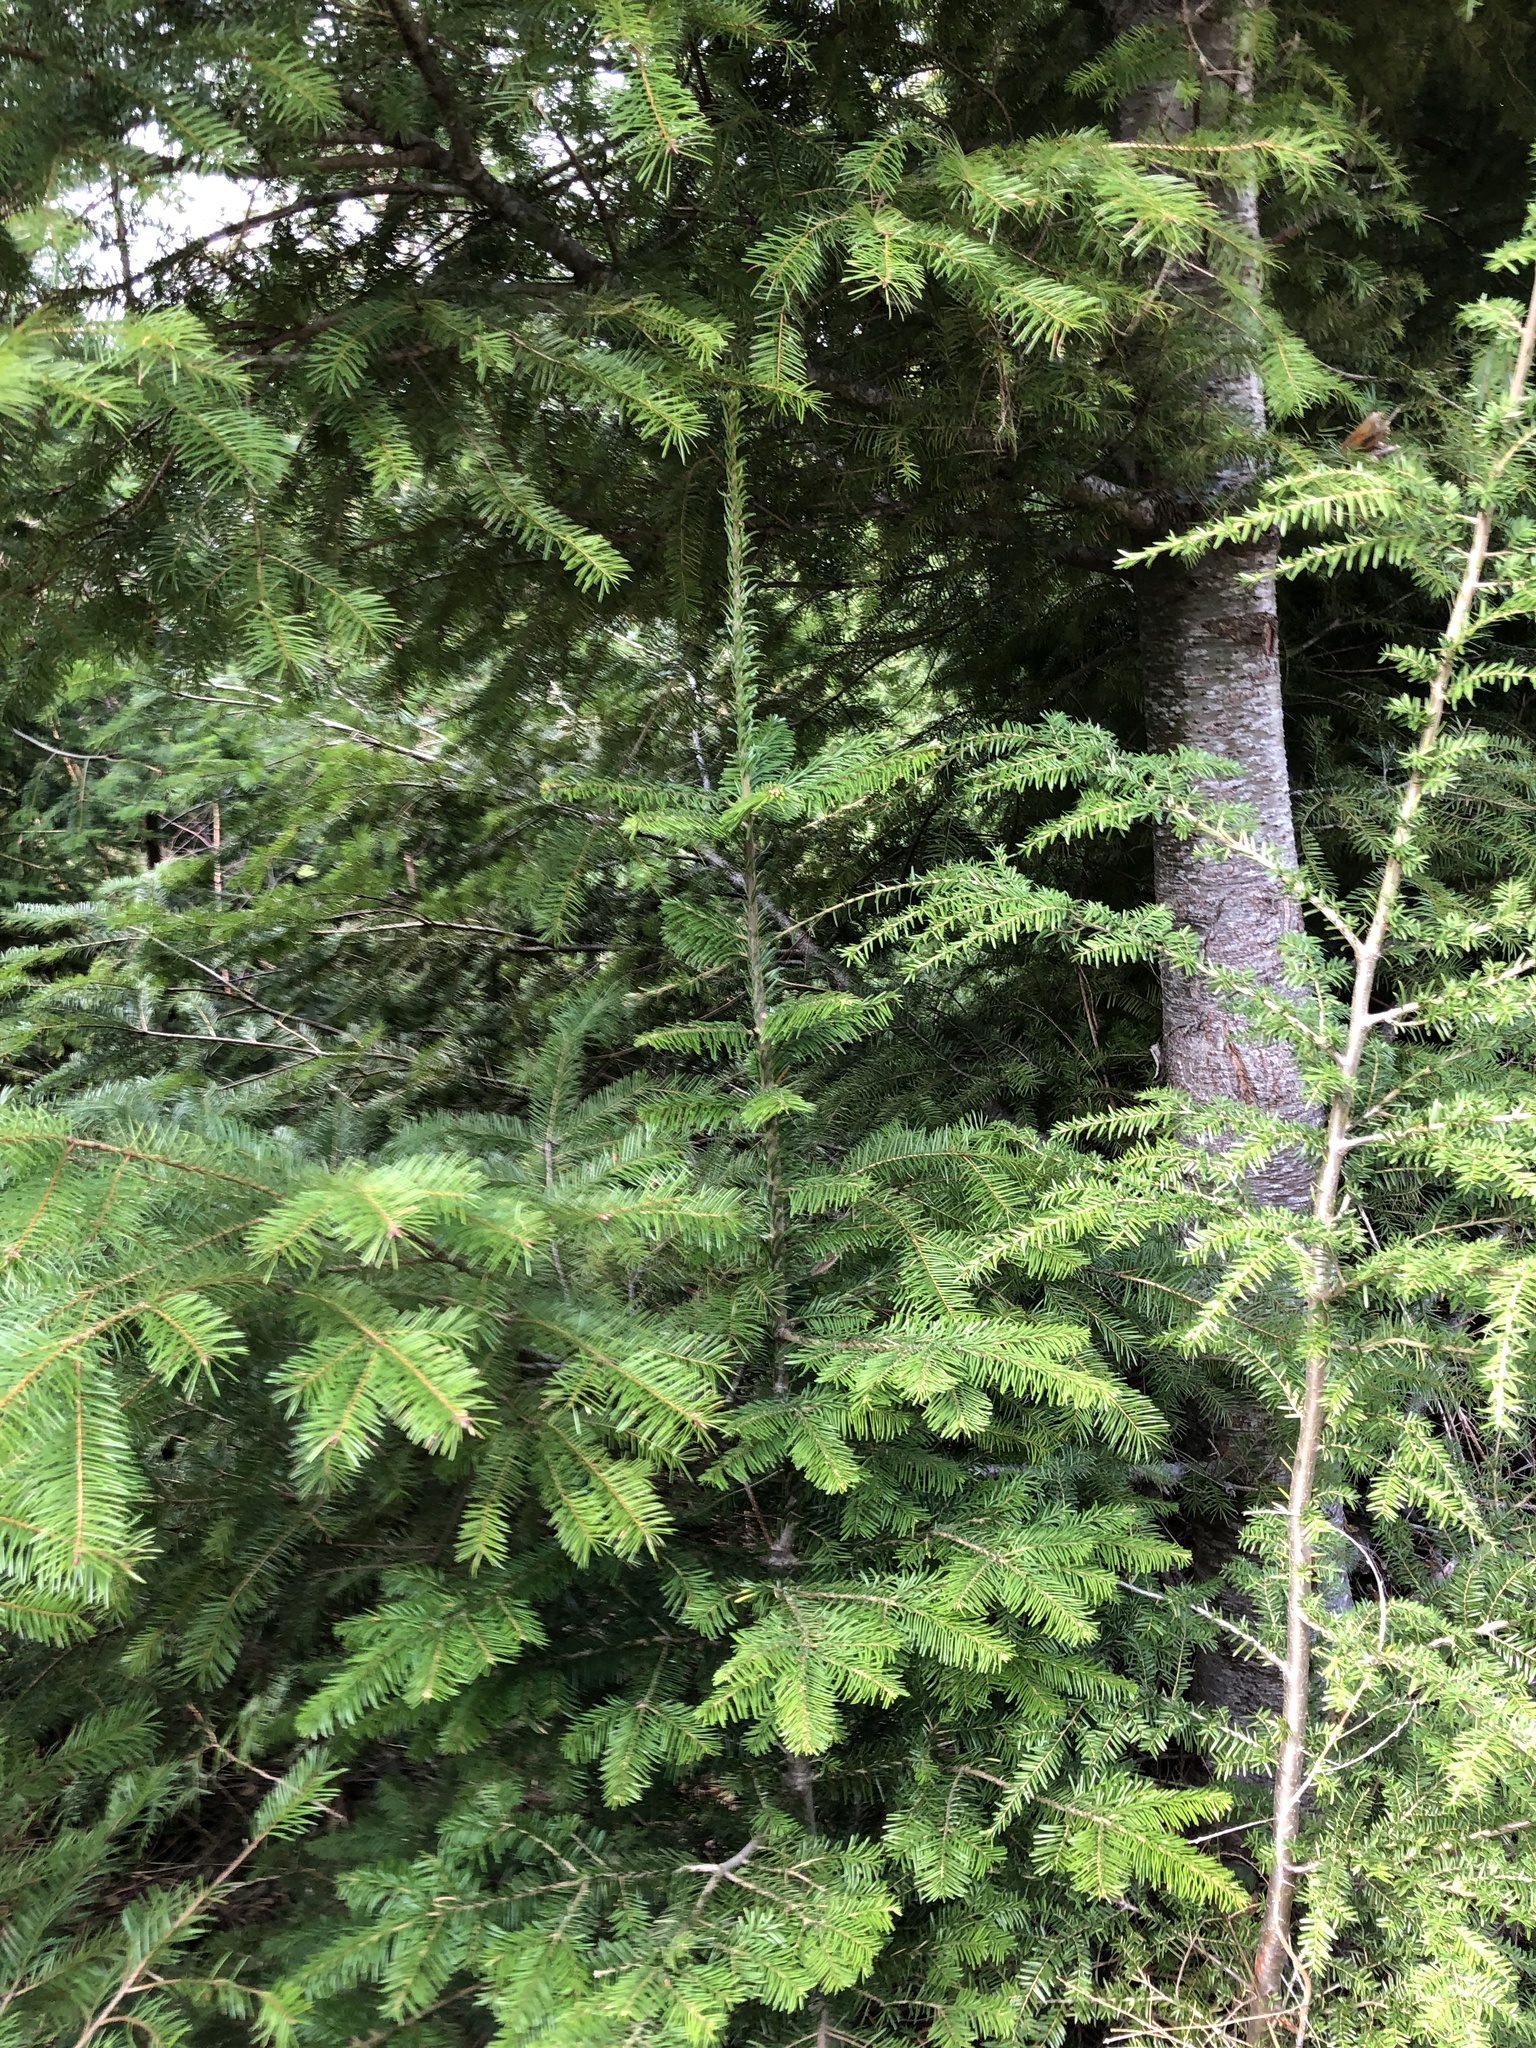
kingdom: Plantae
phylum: Tracheophyta
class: Pinopsida
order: Pinales
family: Pinaceae
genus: Abies
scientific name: Abies amabilis
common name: Pacific silver fir
